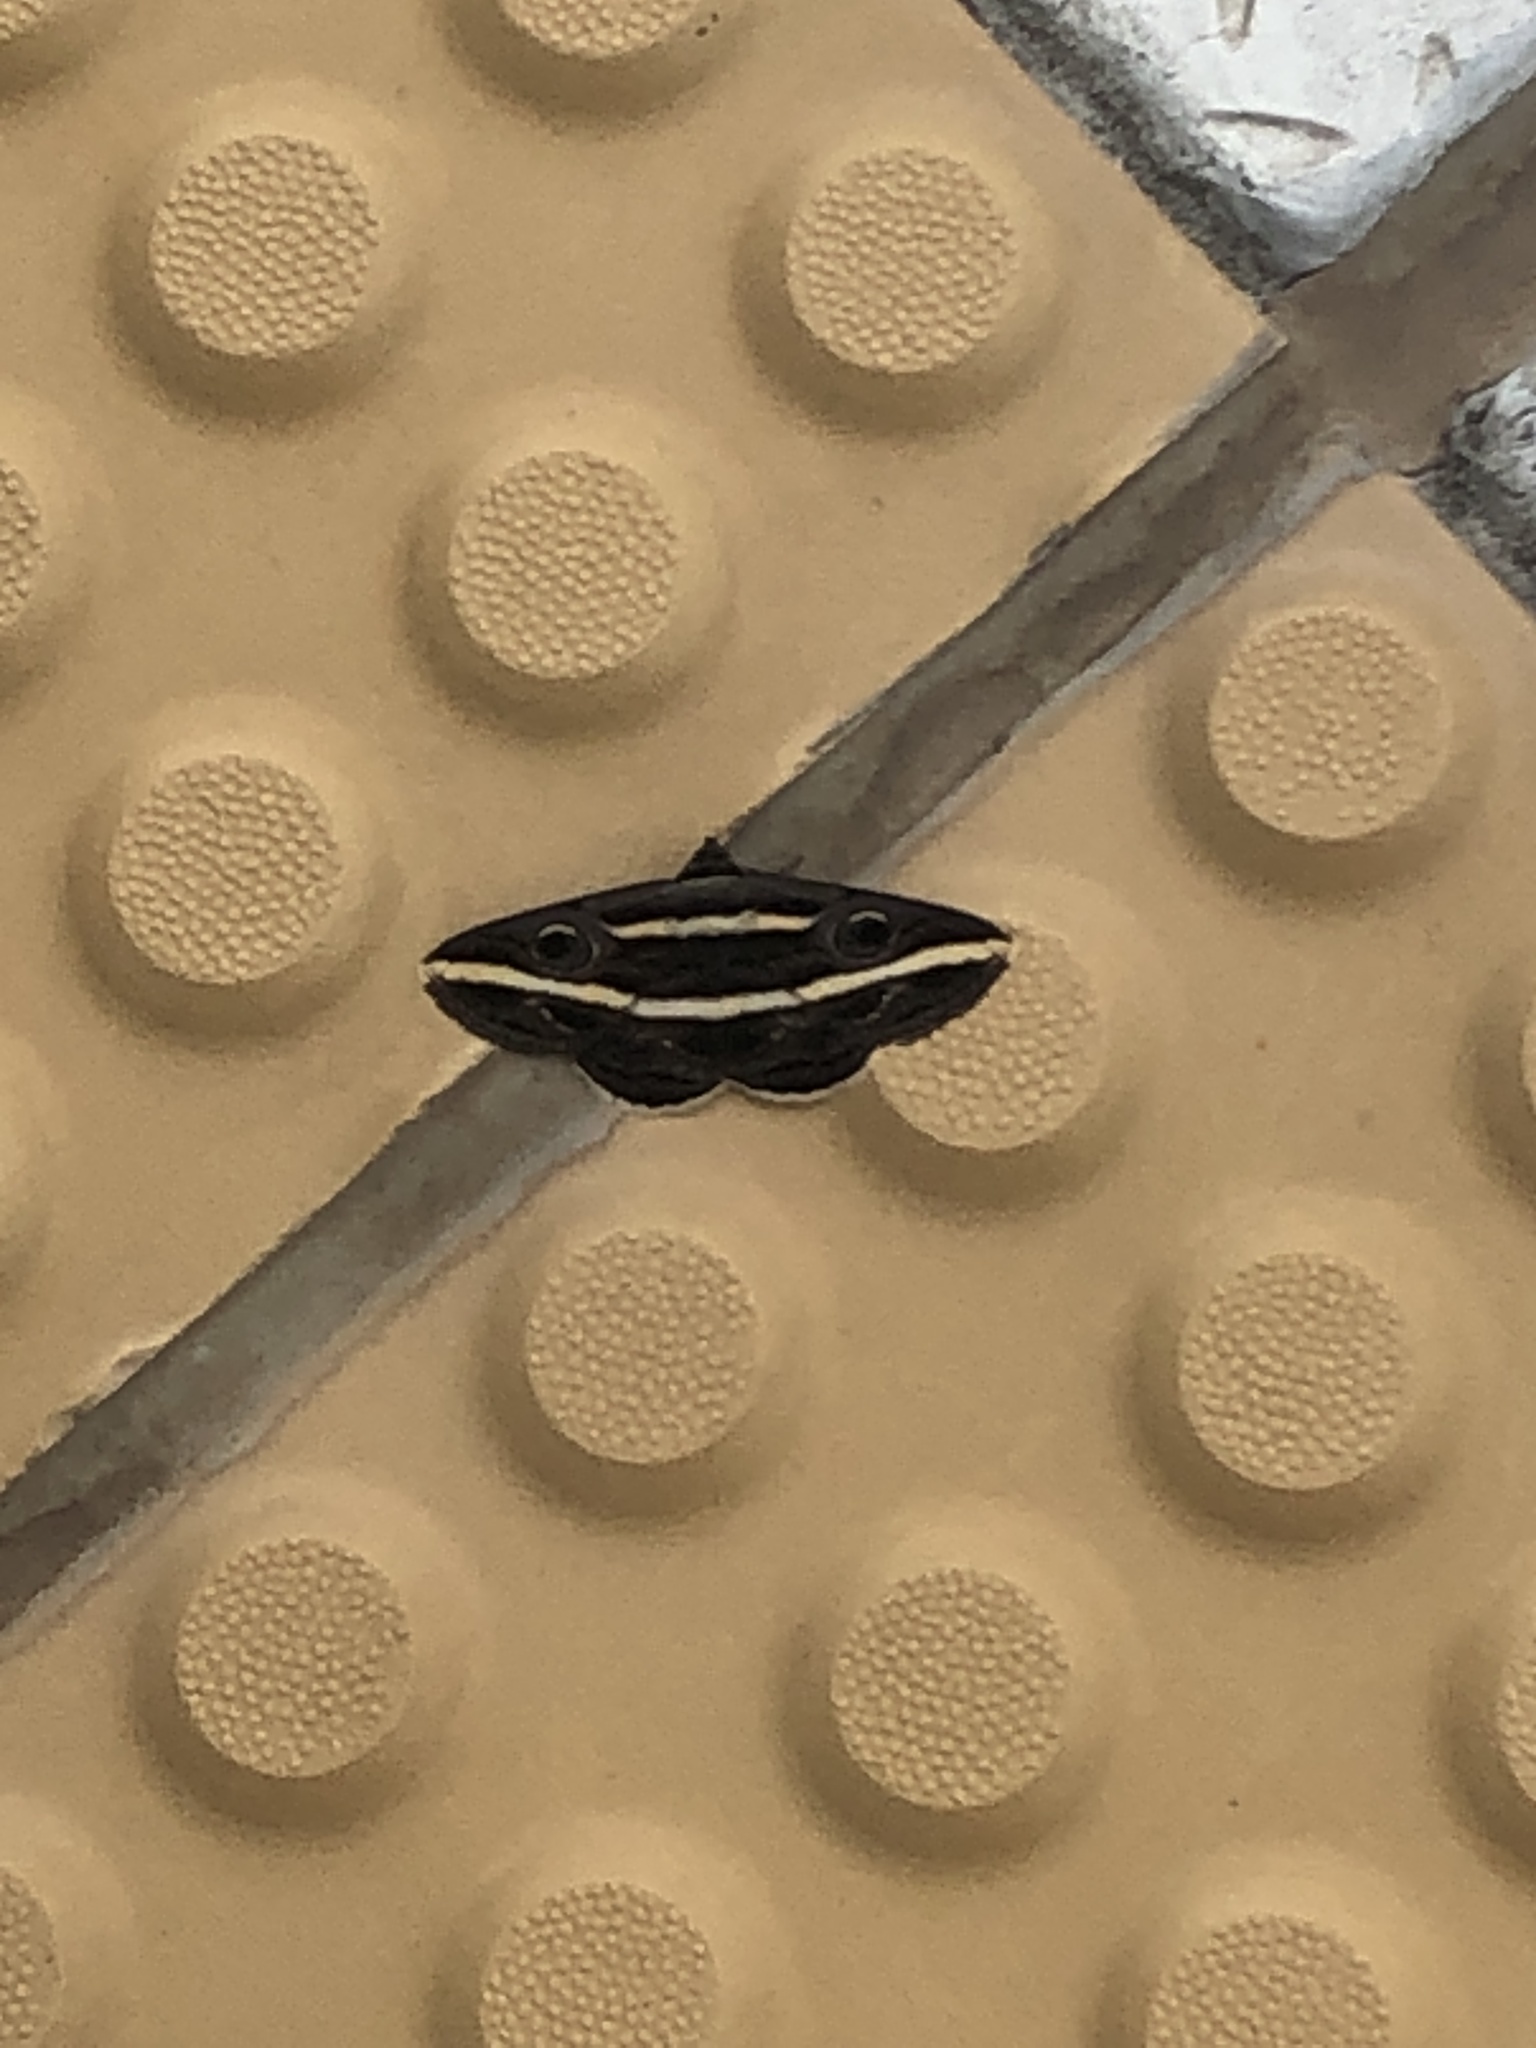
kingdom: Animalia
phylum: Arthropoda
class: Insecta
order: Lepidoptera
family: Erebidae
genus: Donuca
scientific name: Donuca rubropicta
